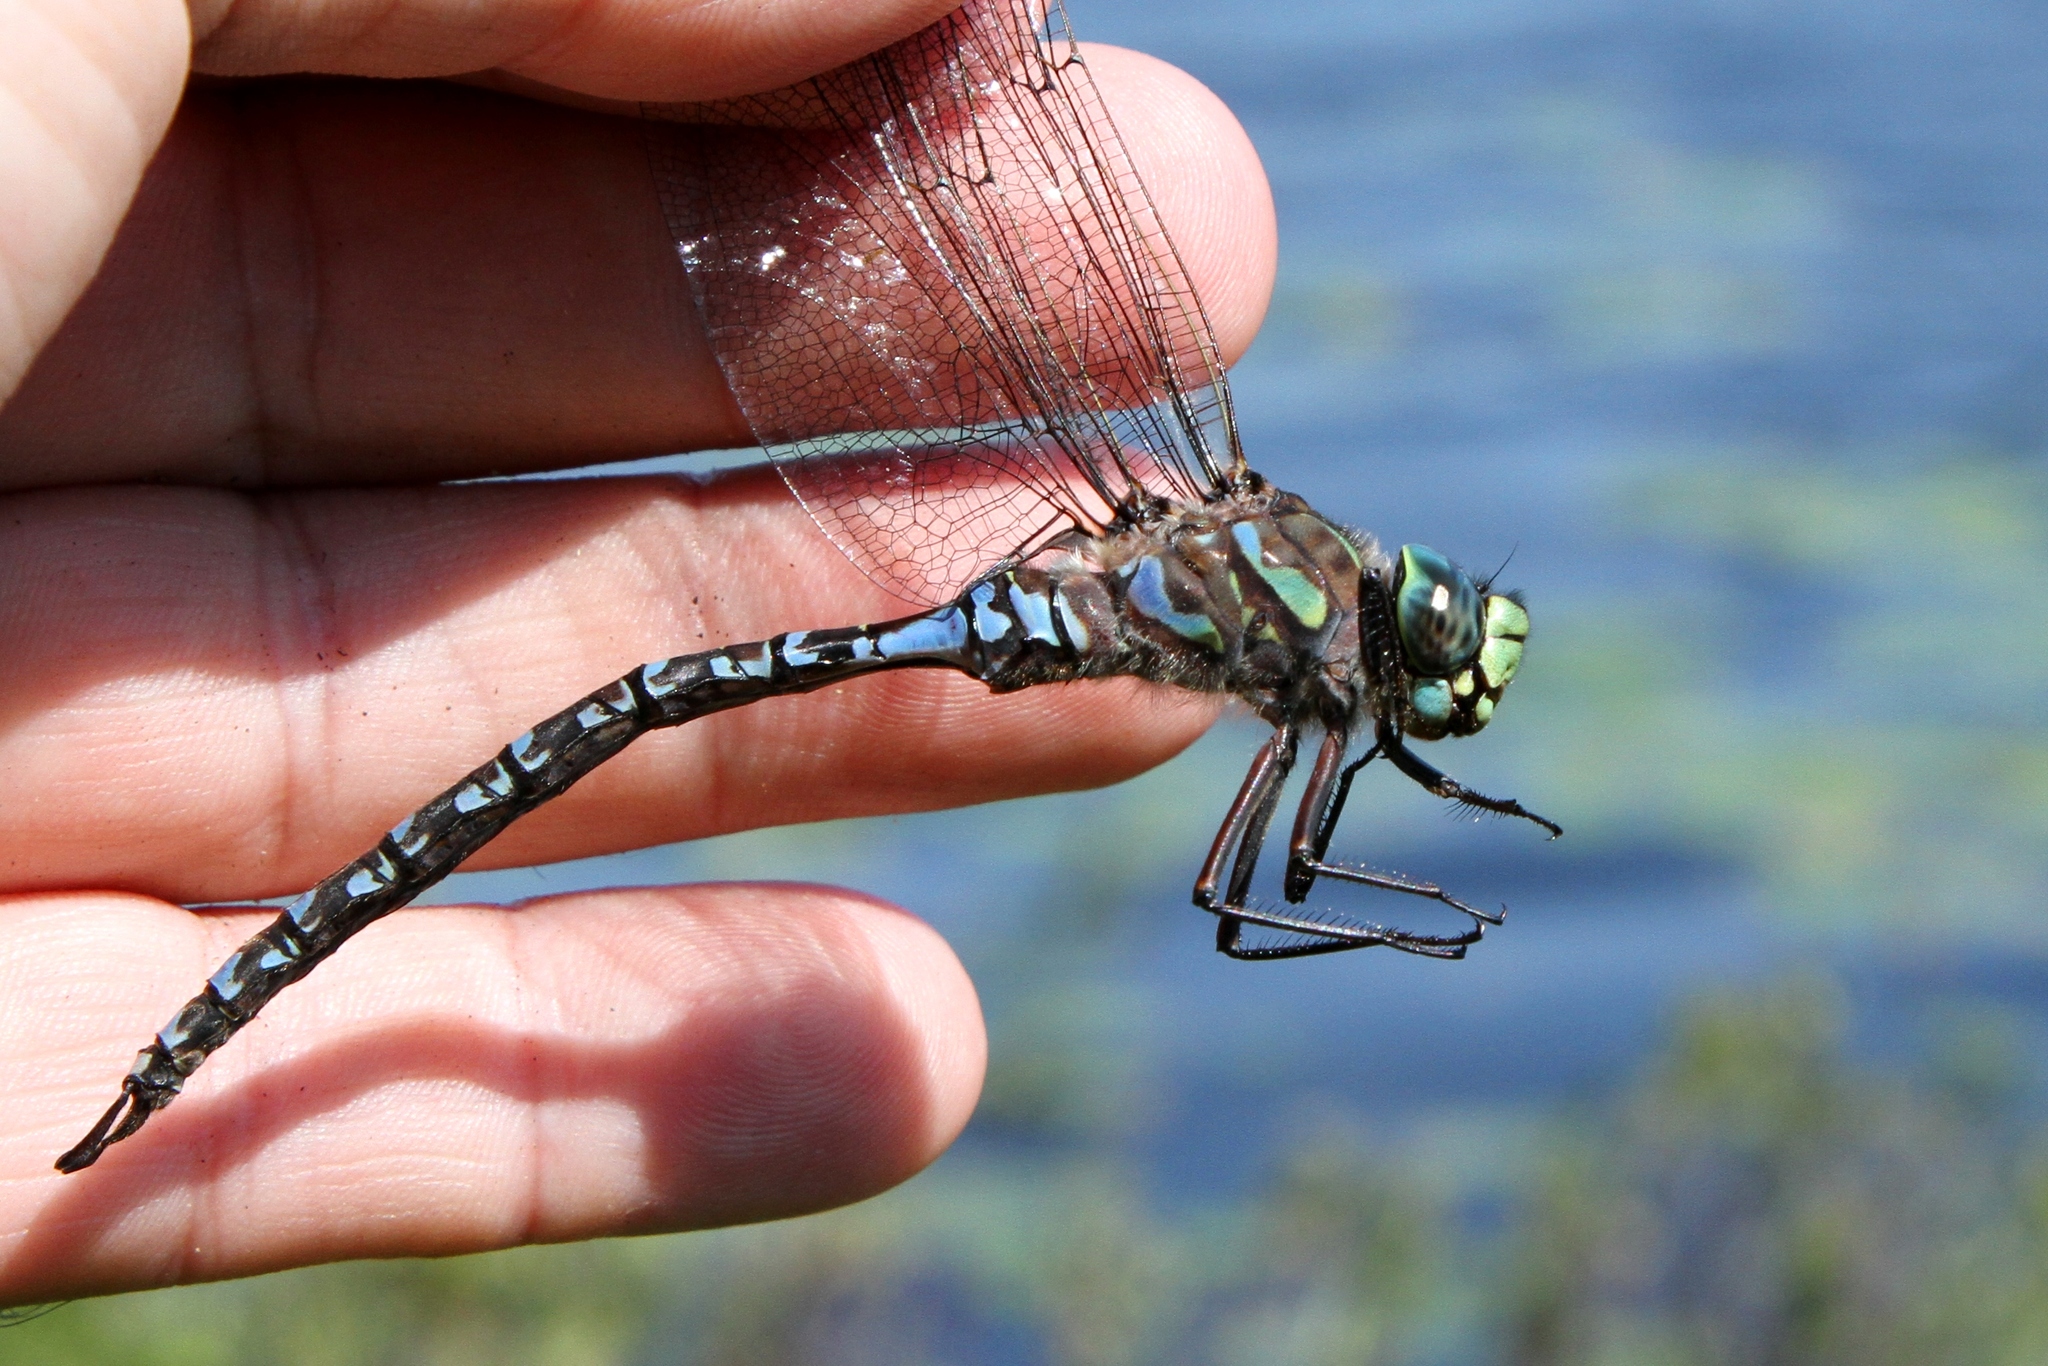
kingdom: Animalia
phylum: Arthropoda
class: Insecta
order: Odonata
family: Aeshnidae
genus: Aeshna
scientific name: Aeshna eremita
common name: Lake darner
